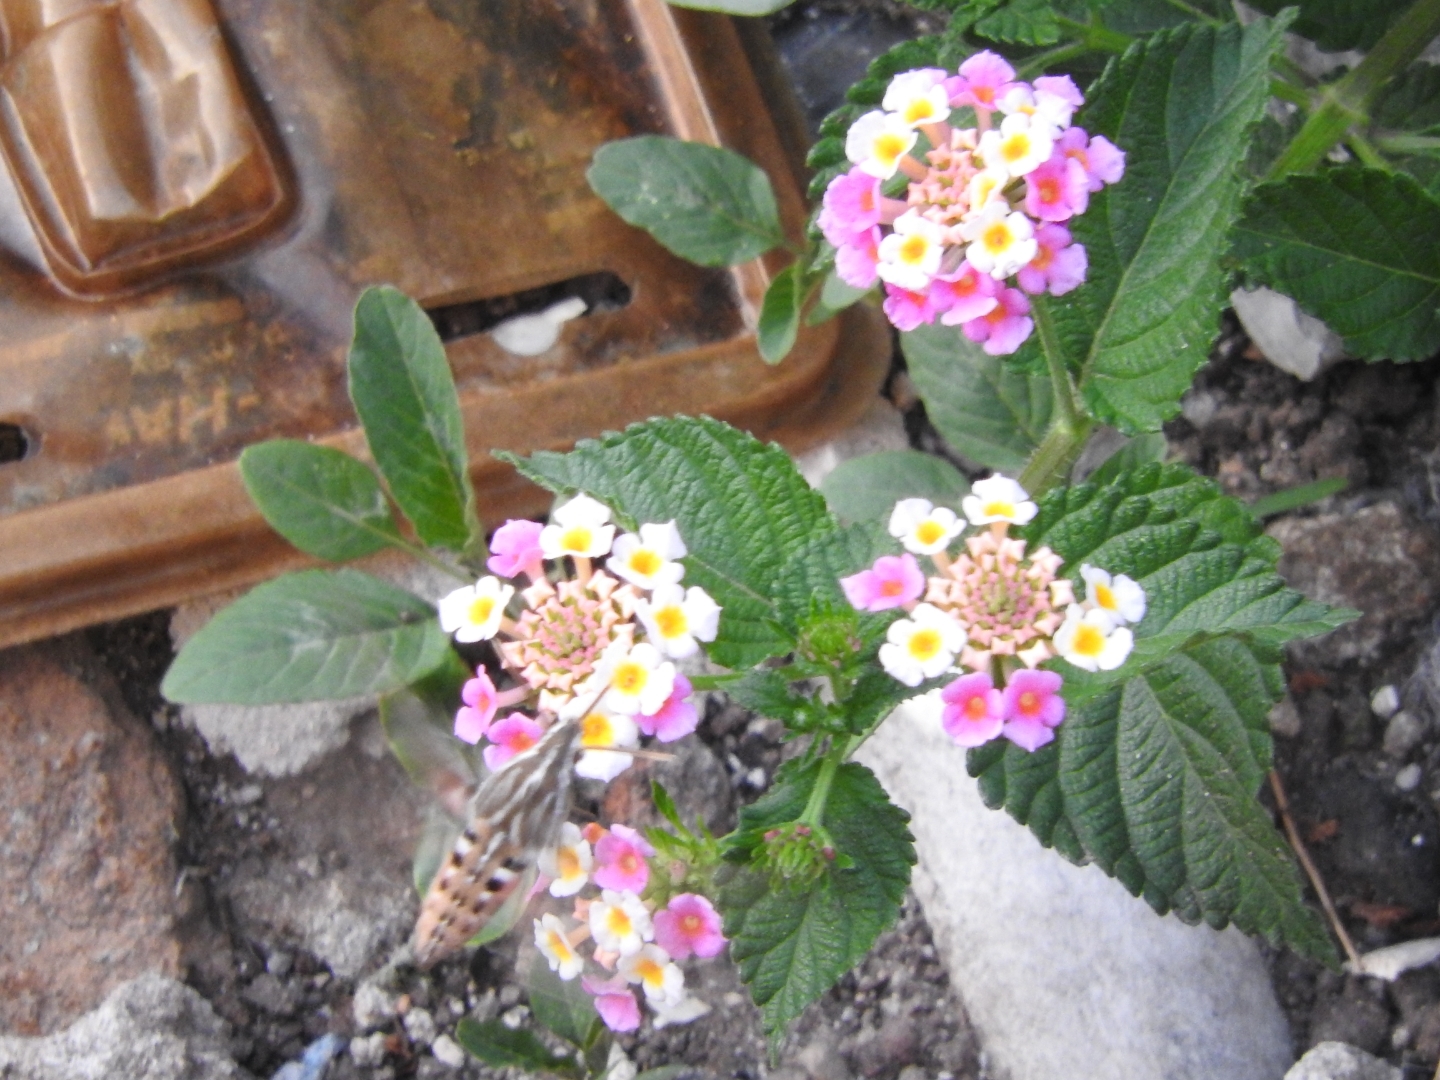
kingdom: Animalia
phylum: Arthropoda
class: Insecta
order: Lepidoptera
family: Sphingidae
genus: Hyles
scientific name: Hyles lineata
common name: White-lined sphinx
